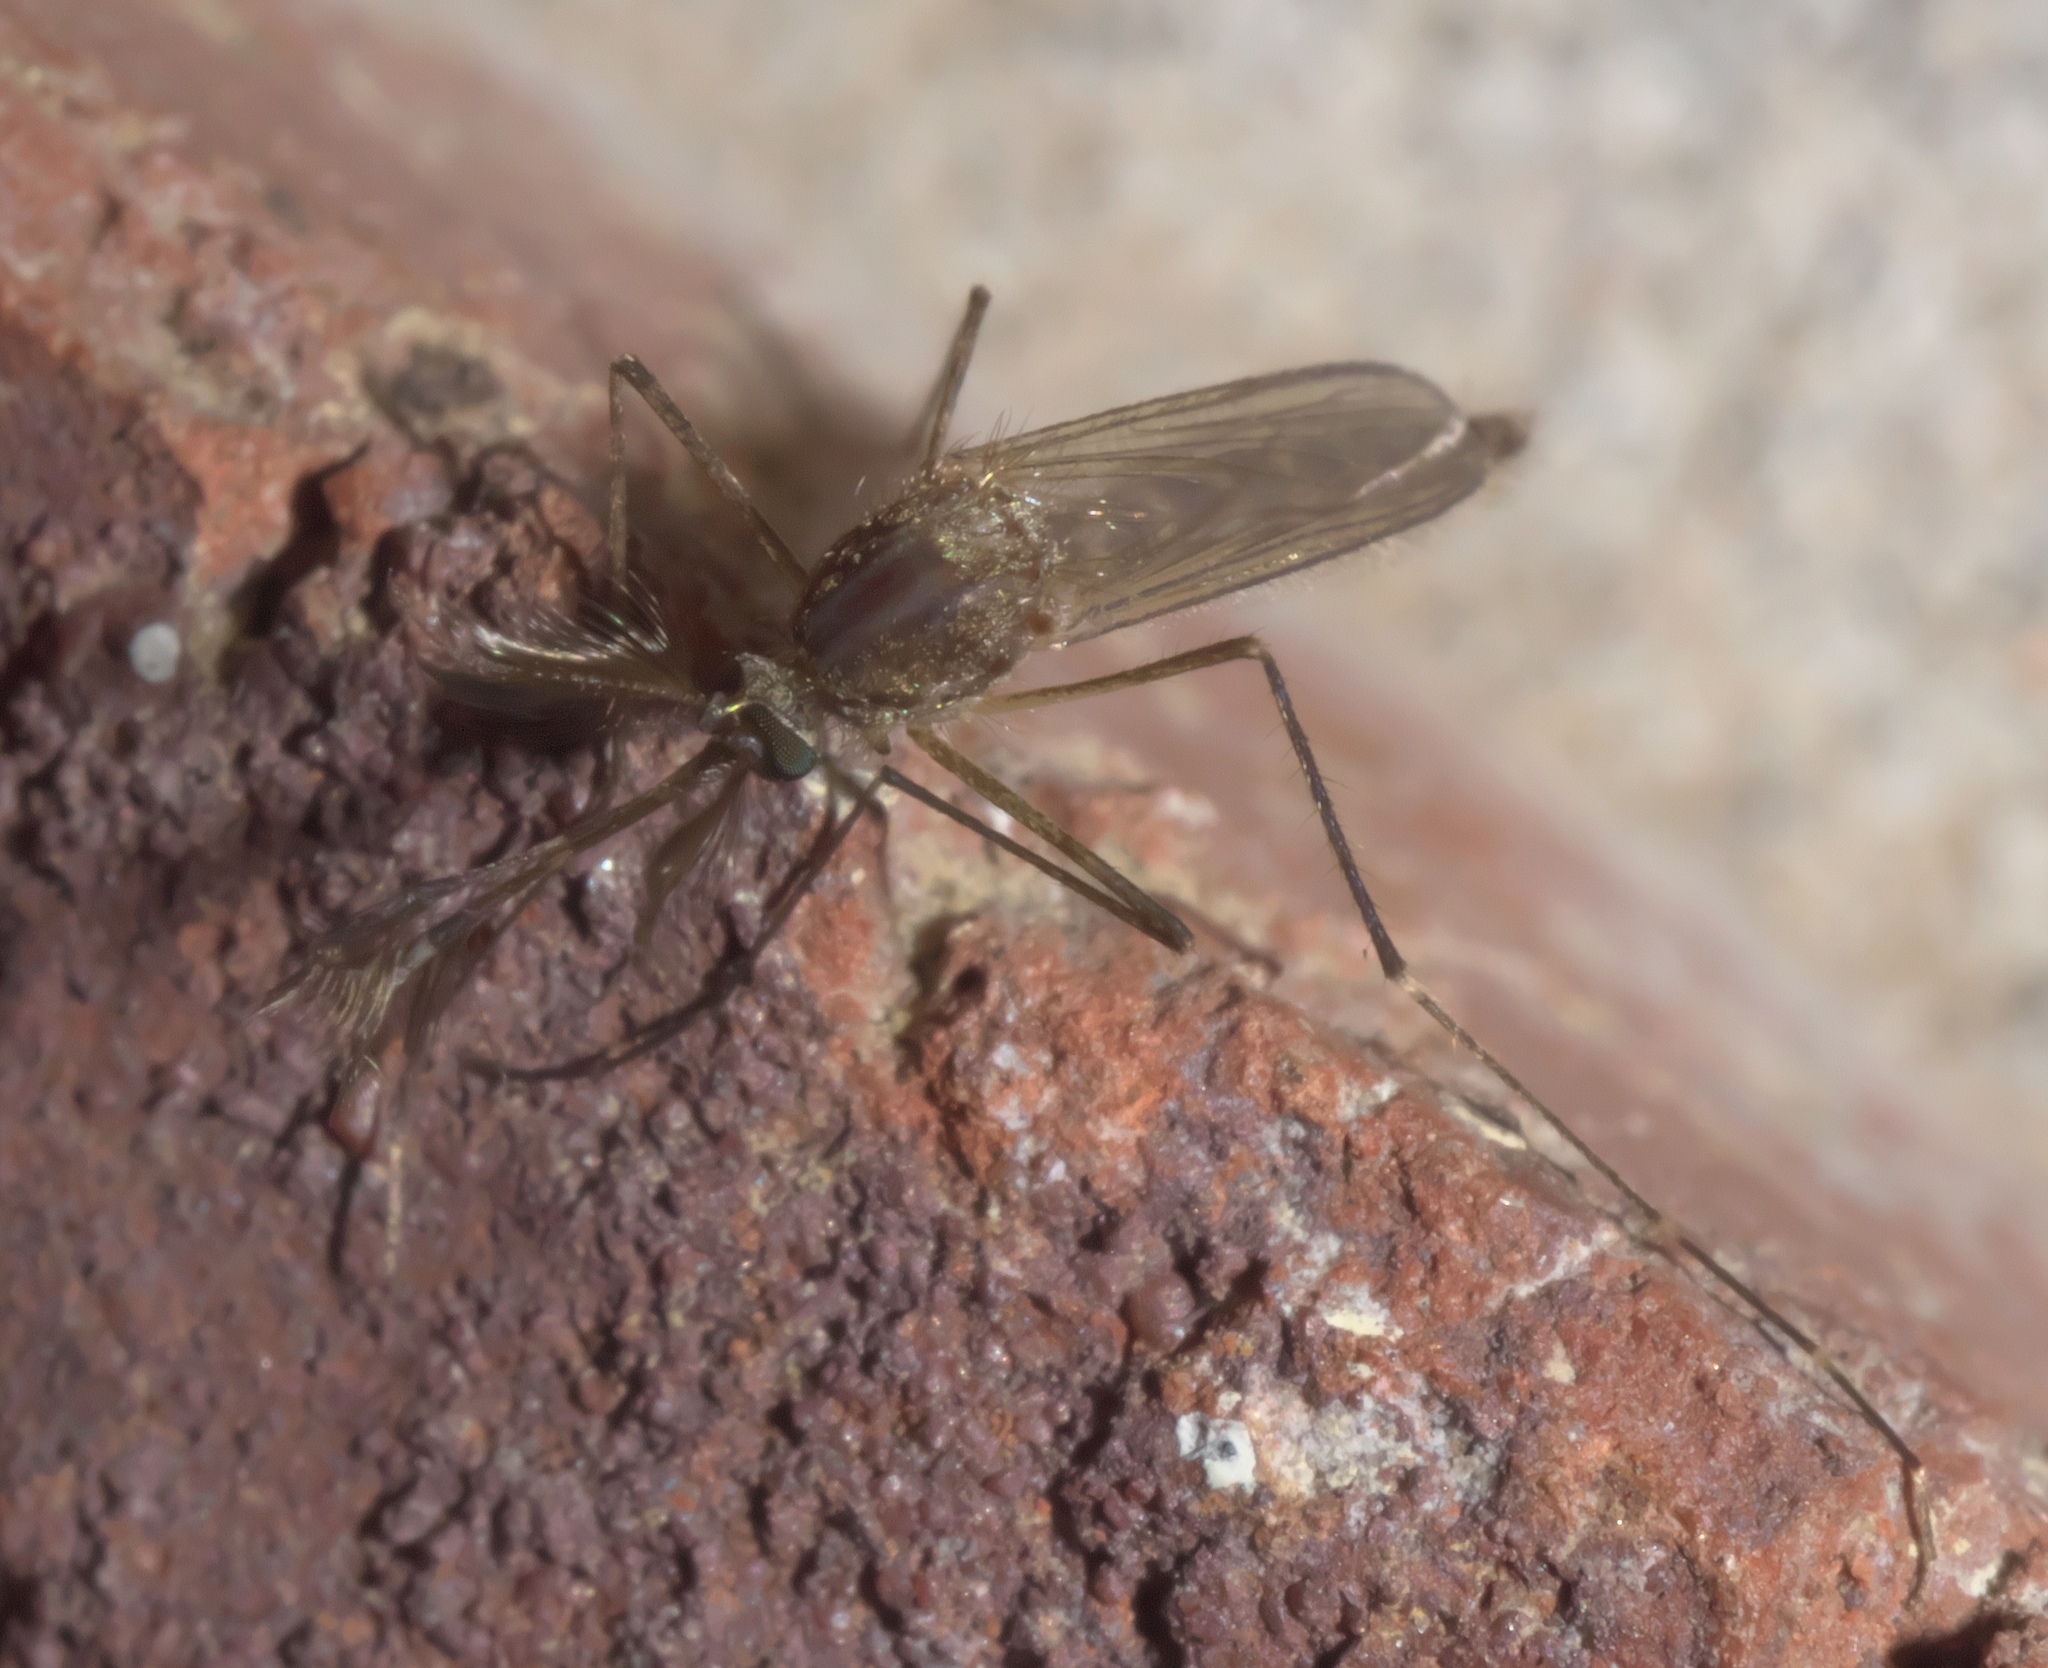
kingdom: Animalia
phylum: Arthropoda
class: Insecta
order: Diptera
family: Culicidae
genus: Aedes
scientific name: Aedes vexans
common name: Inland floodwater mosquito
